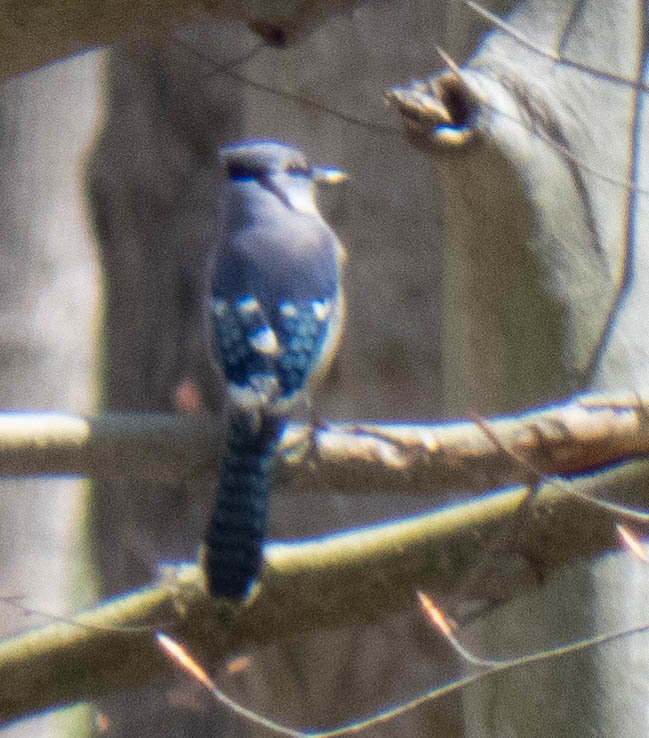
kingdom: Animalia
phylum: Chordata
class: Aves
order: Passeriformes
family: Corvidae
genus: Cyanocitta
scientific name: Cyanocitta cristata
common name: Blue jay
